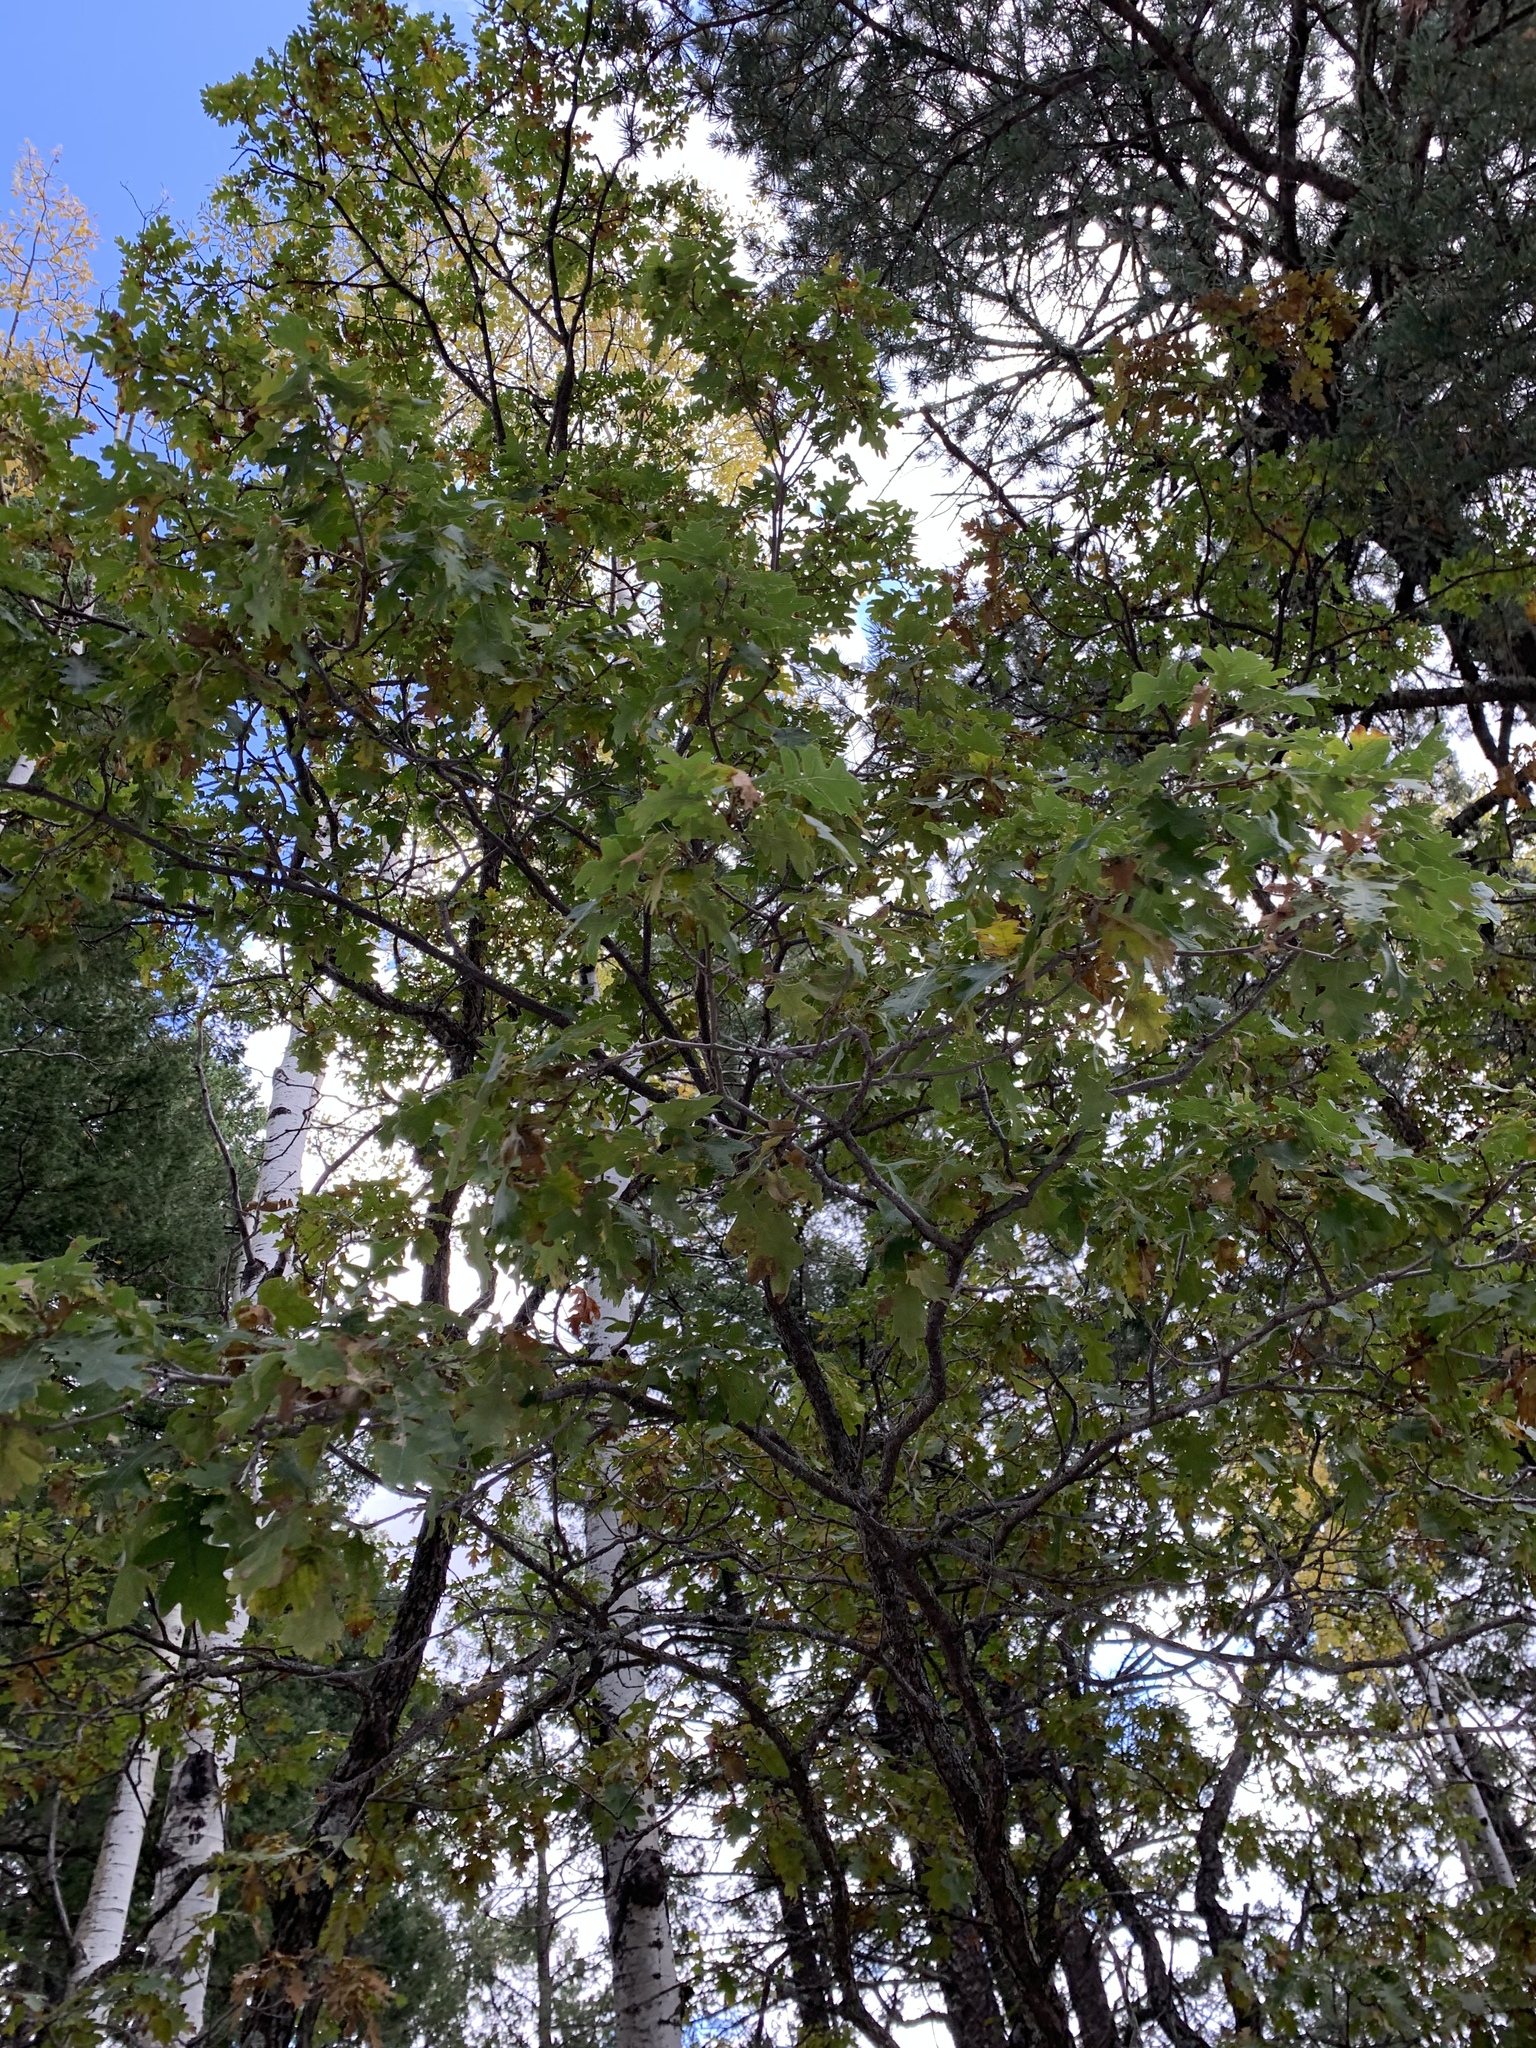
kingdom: Plantae
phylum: Tracheophyta
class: Magnoliopsida
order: Fagales
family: Fagaceae
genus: Quercus
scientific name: Quercus gambelii
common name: Gambel oak
